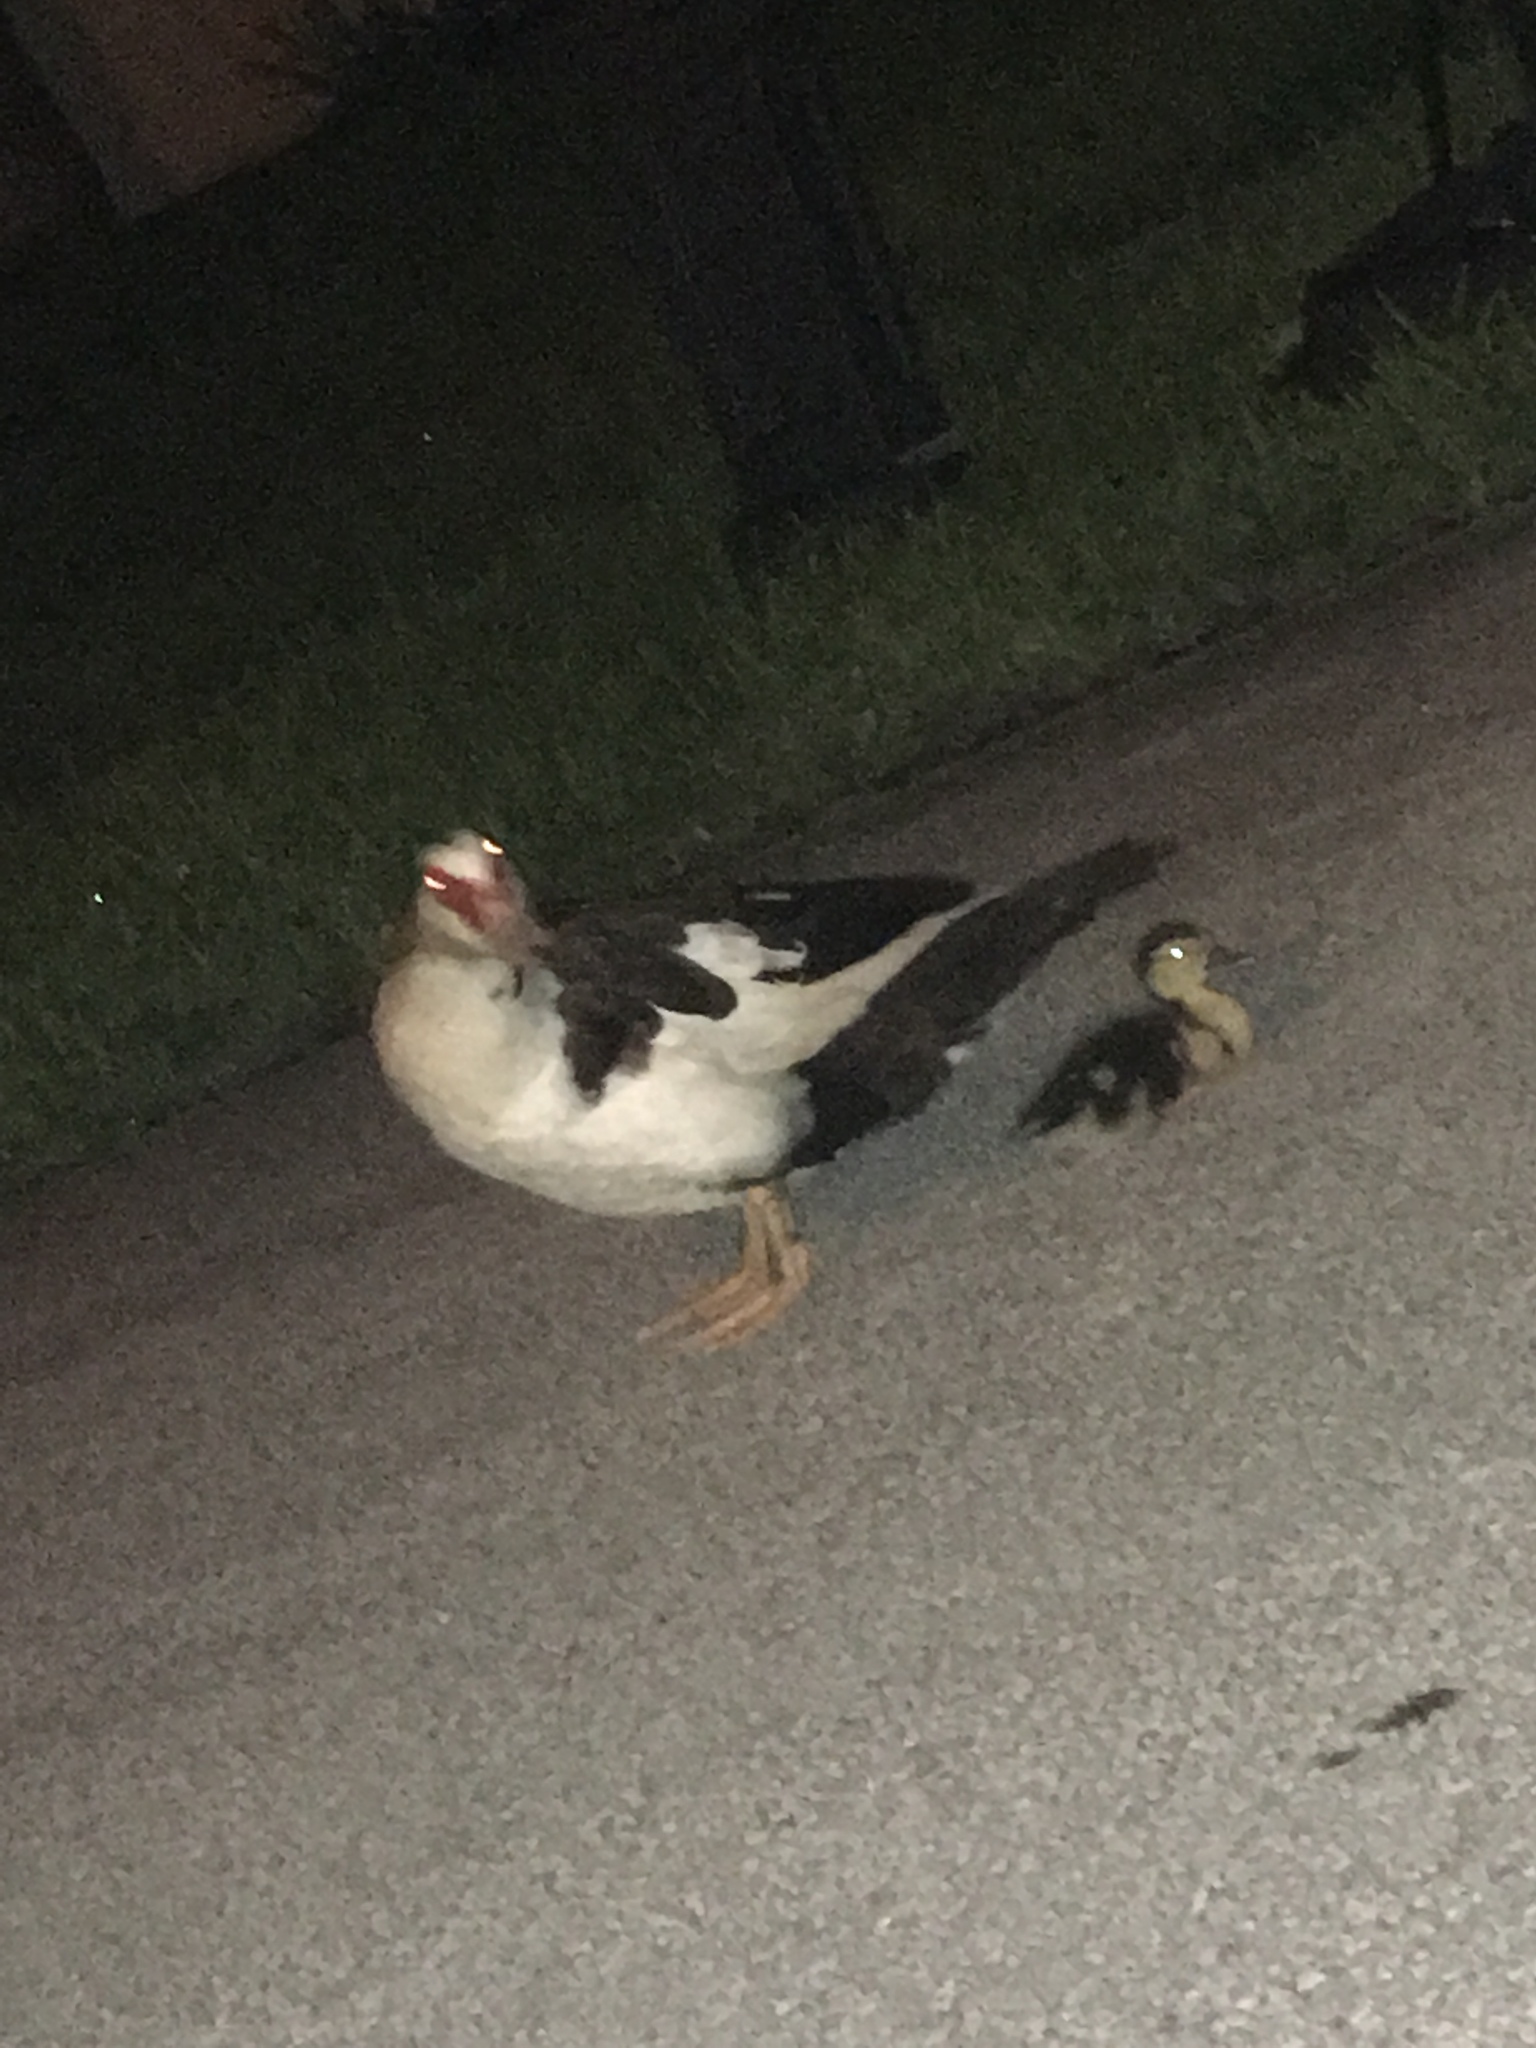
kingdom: Animalia
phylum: Chordata
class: Aves
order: Anseriformes
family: Anatidae
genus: Cairina
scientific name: Cairina moschata
